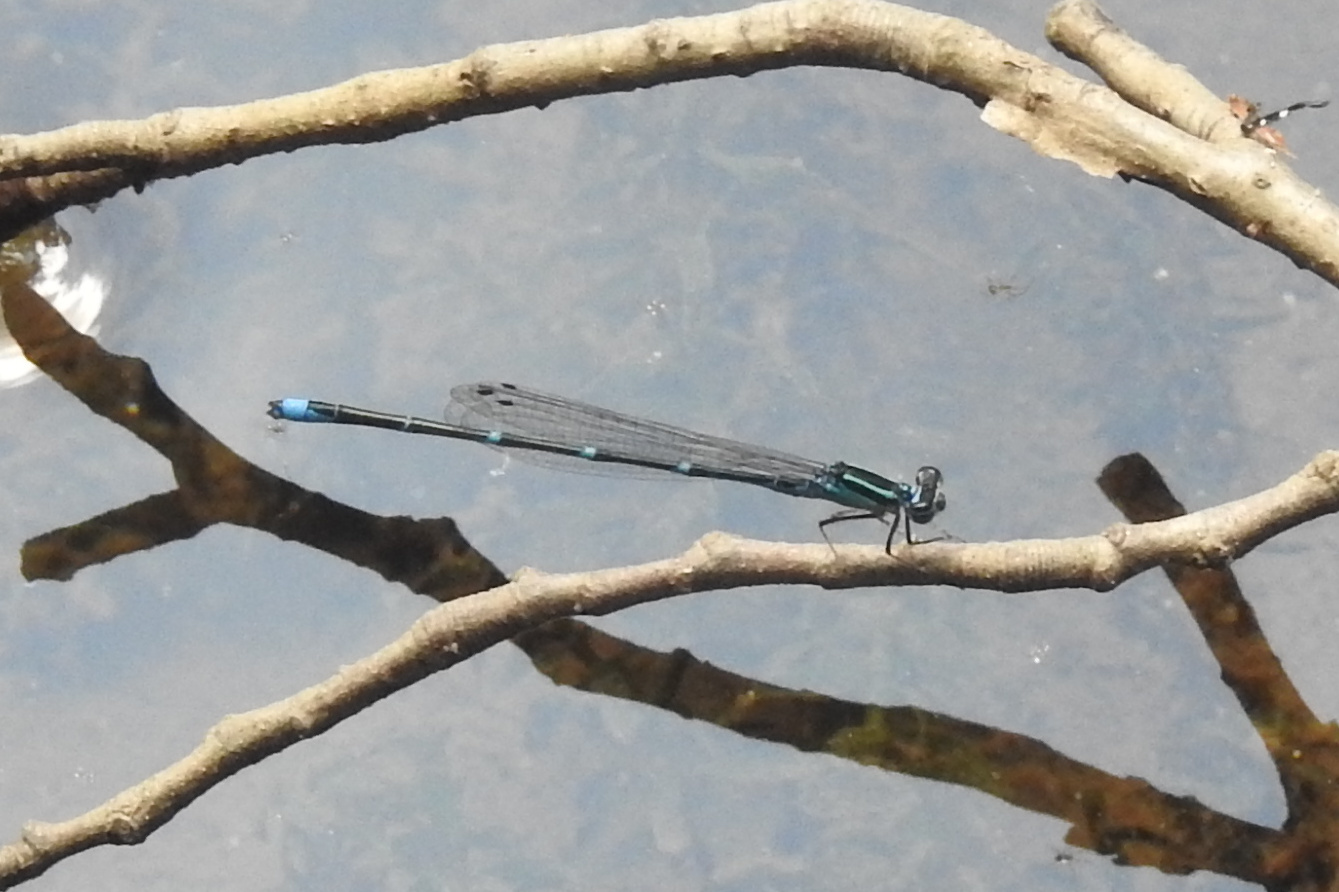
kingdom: Animalia
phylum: Arthropoda
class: Insecta
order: Odonata
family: Coenagrionidae
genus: Enallagma
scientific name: Enallagma exsulans
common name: Stream bluet
